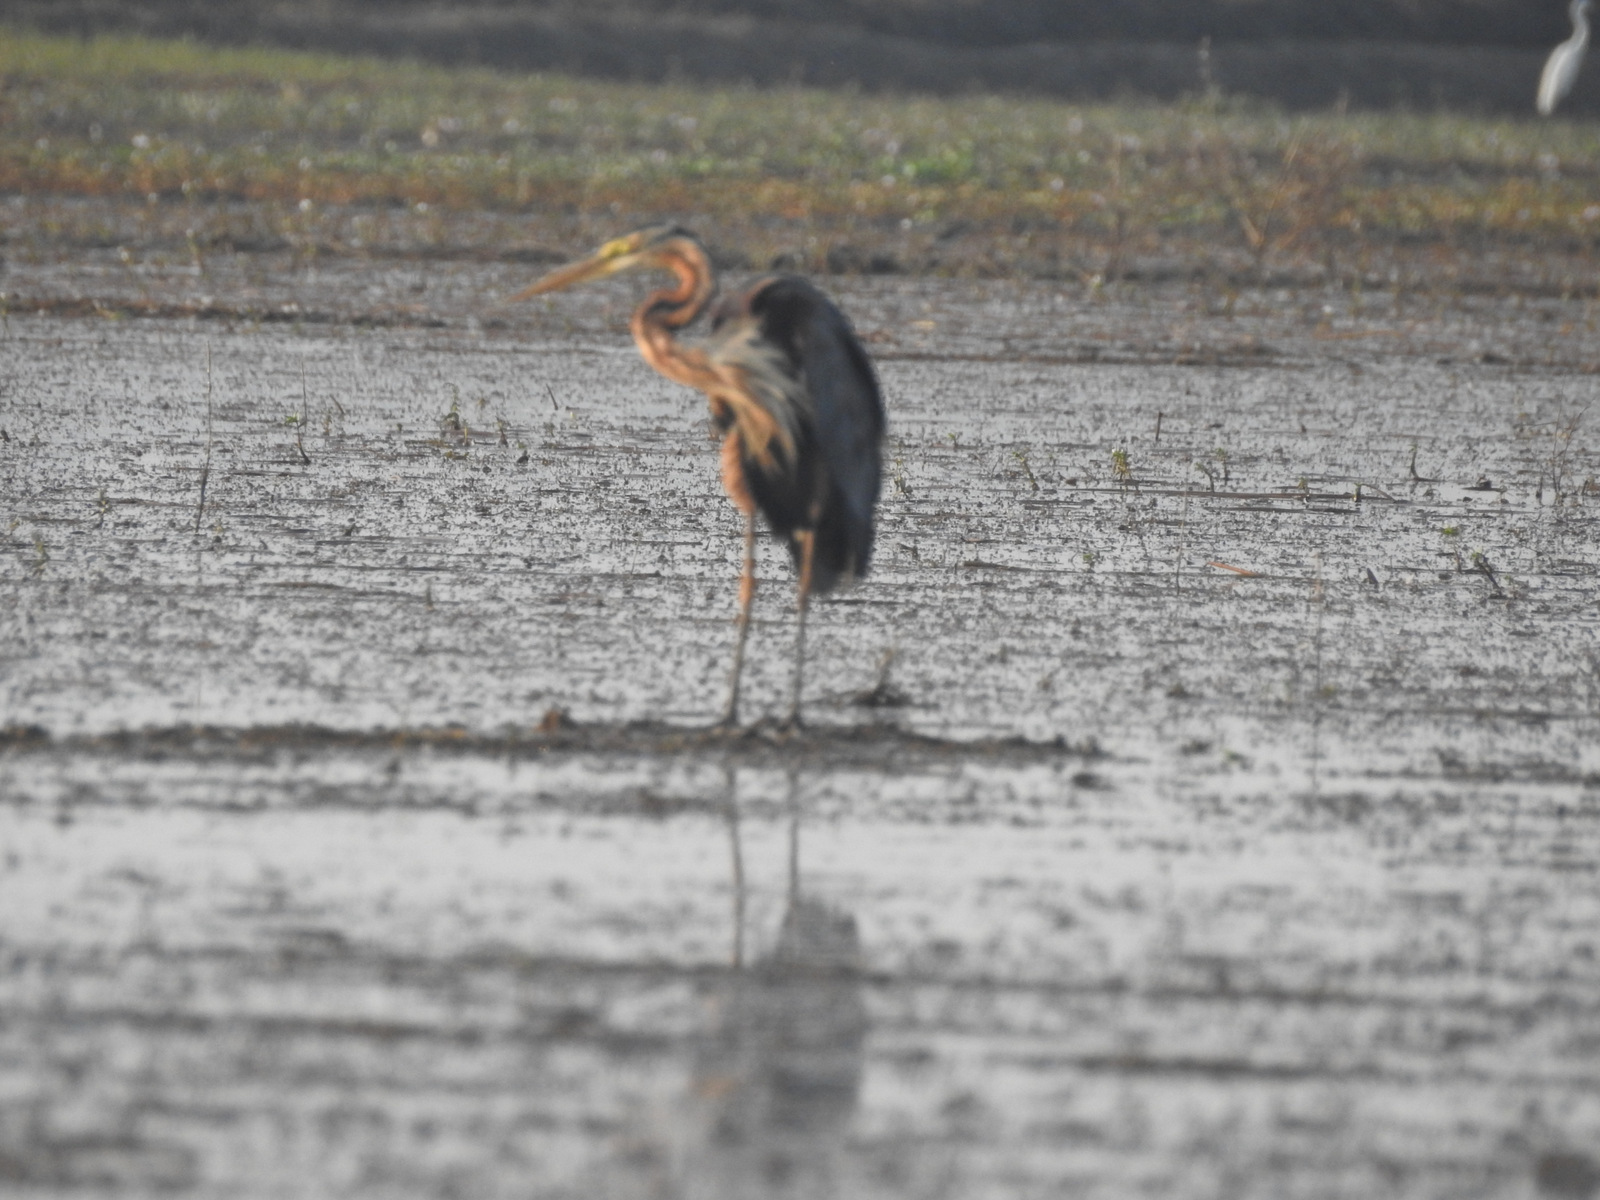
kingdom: Animalia
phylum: Chordata
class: Aves
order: Pelecaniformes
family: Ardeidae
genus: Ardea
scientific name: Ardea purpurea
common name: Purple heron
